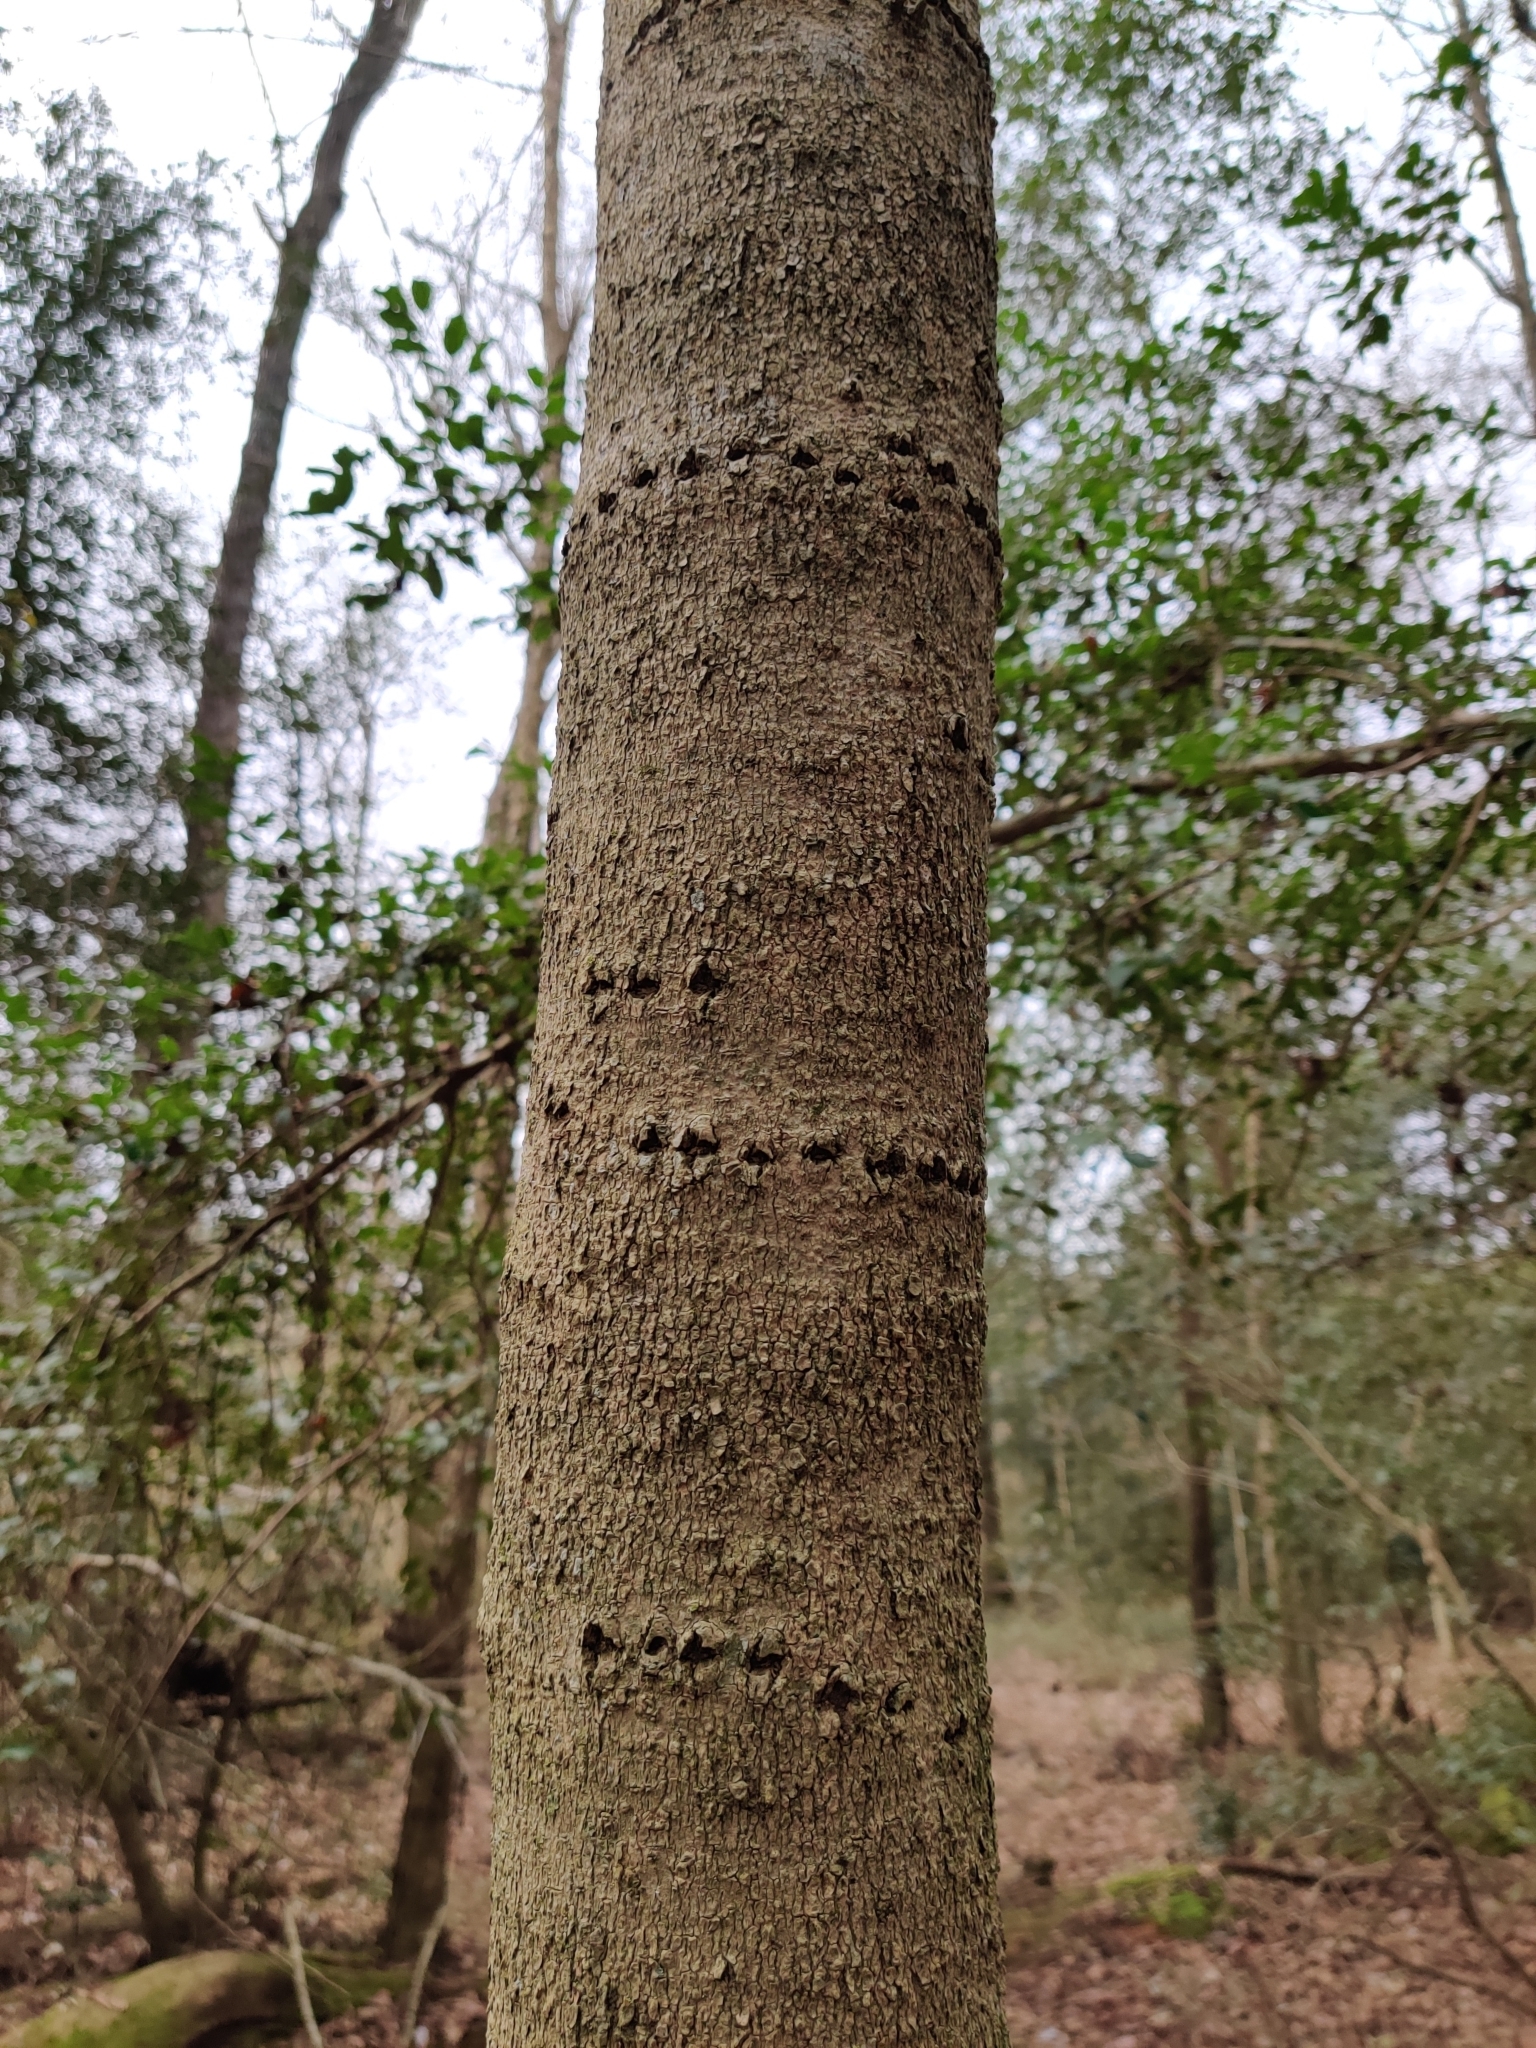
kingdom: Animalia
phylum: Chordata
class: Aves
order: Piciformes
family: Picidae
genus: Sphyrapicus
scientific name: Sphyrapicus varius
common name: Yellow-bellied sapsucker
